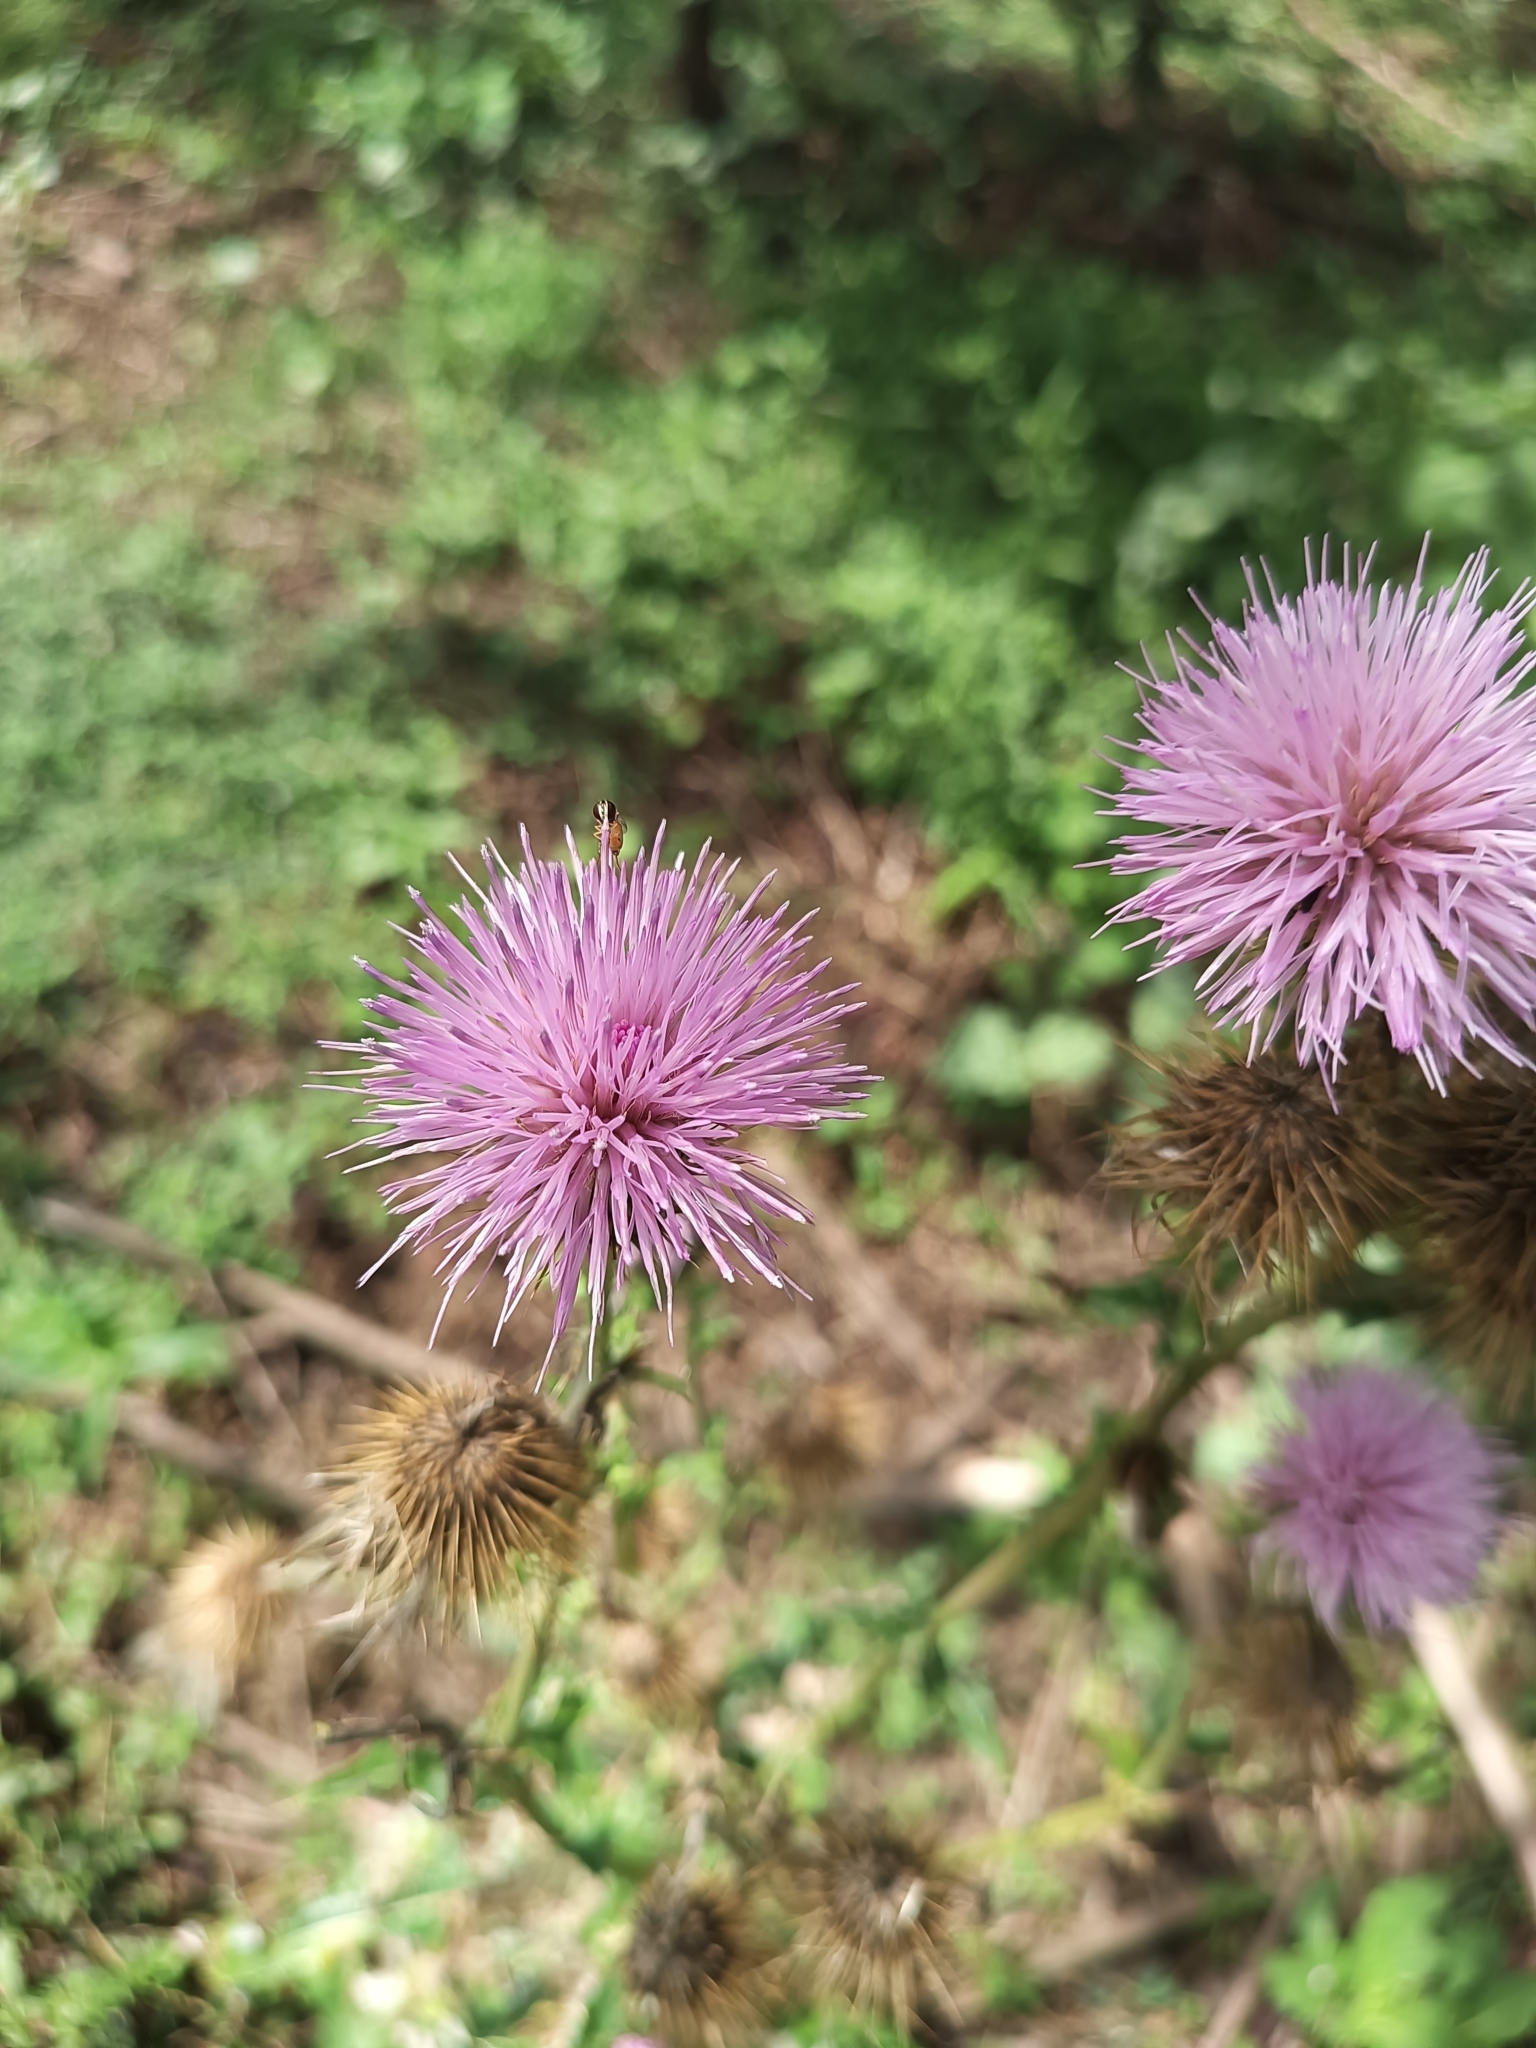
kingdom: Plantae
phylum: Tracheophyta
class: Magnoliopsida
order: Asterales
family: Asteraceae
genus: Cirsium
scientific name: Cirsium rhaphilepis
